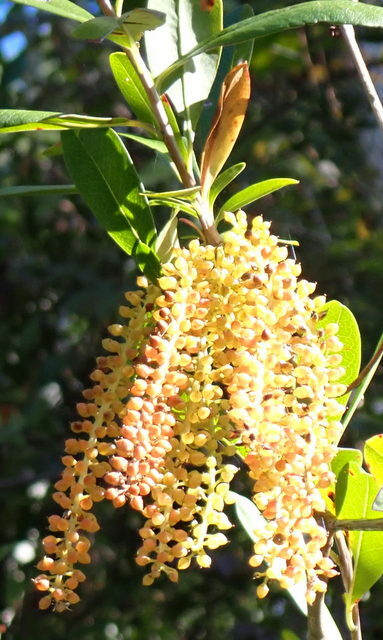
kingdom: Plantae
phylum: Tracheophyta
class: Magnoliopsida
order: Ericales
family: Cyrillaceae
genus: Cyrilla
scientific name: Cyrilla racemiflora
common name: Black titi
